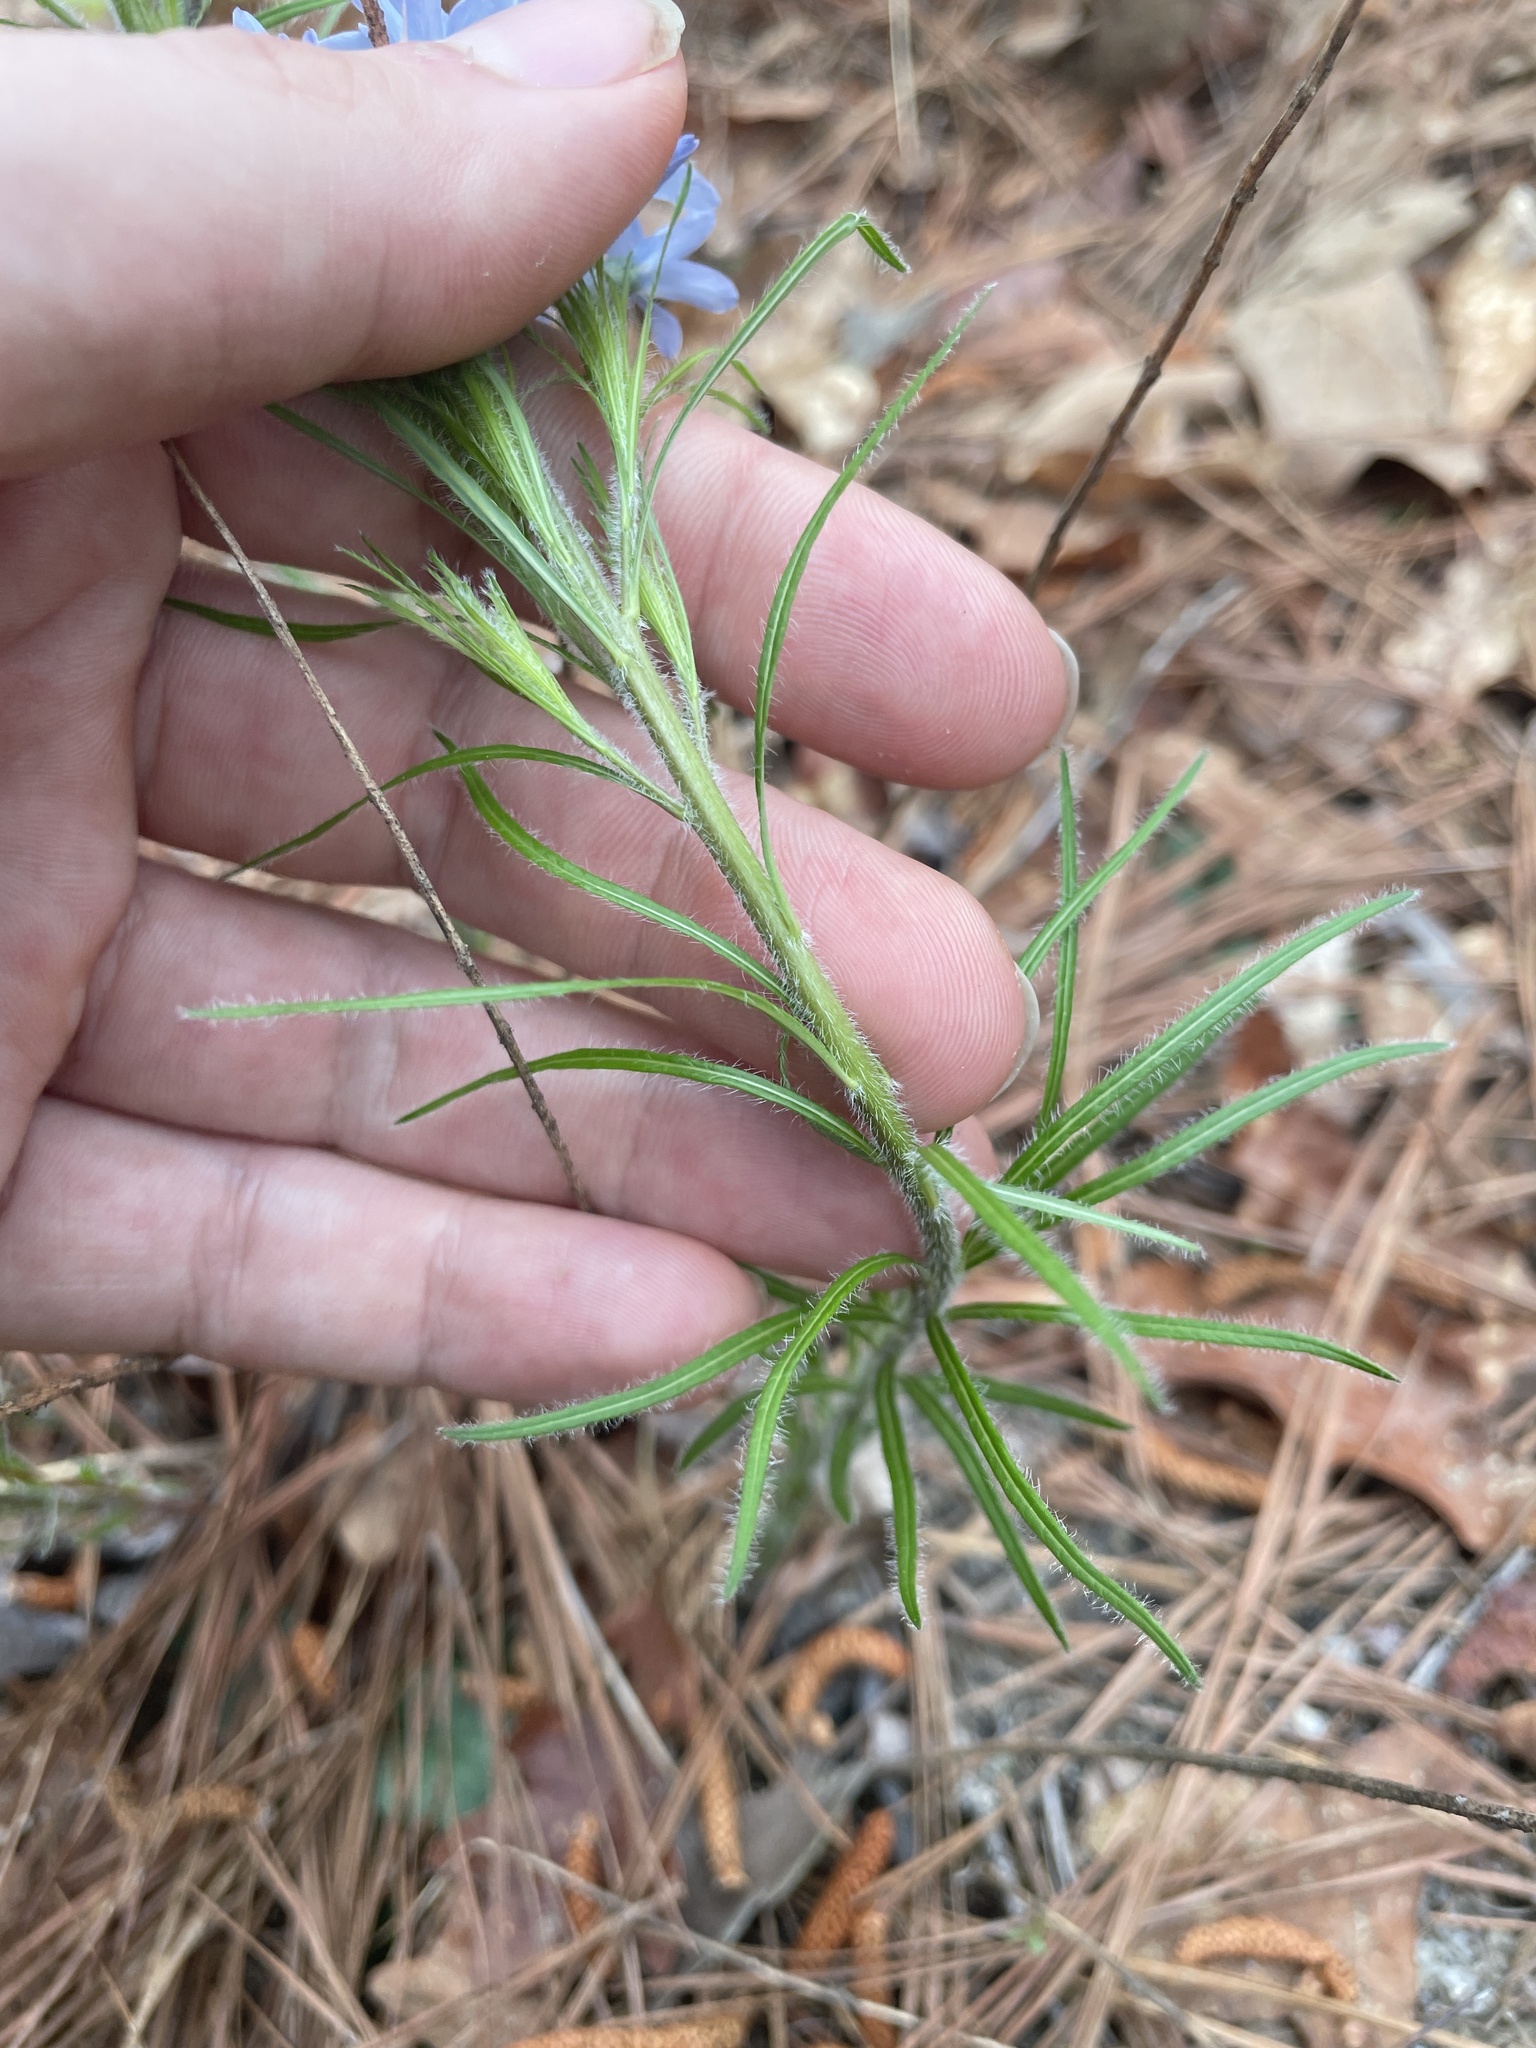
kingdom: Plantae
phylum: Tracheophyta
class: Magnoliopsida
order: Gentianales
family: Apocynaceae
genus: Amsonia
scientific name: Amsonia ciliata
